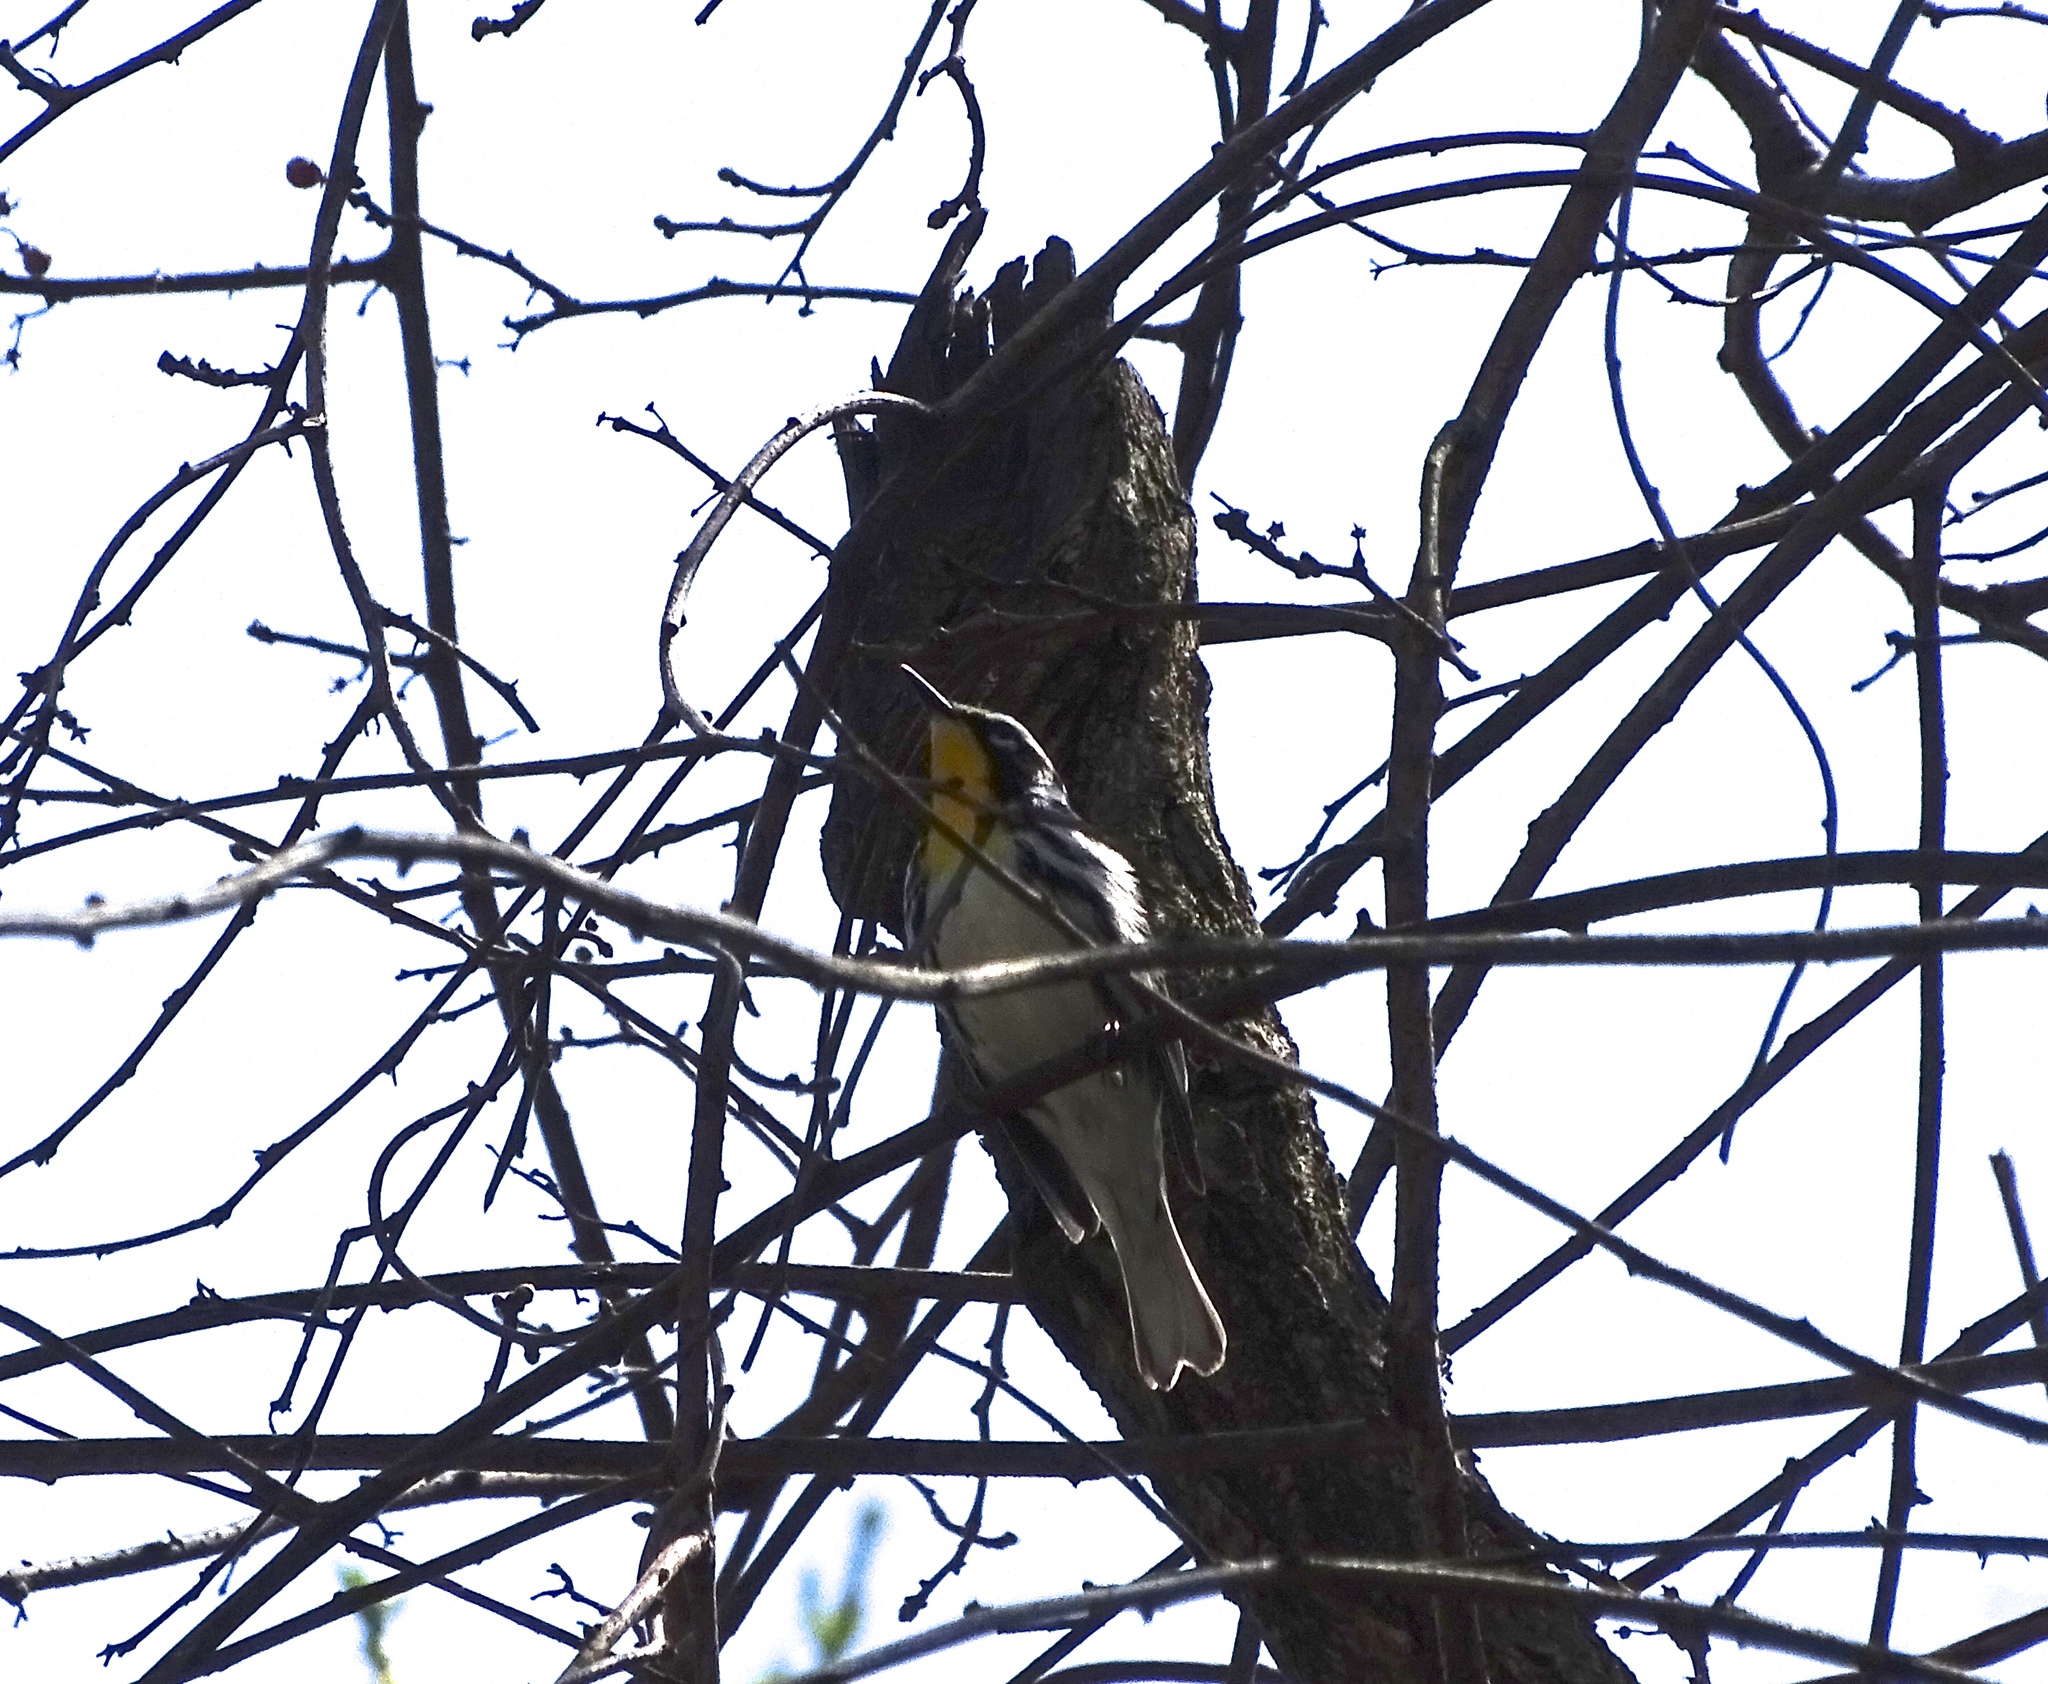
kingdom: Animalia
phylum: Chordata
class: Aves
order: Passeriformes
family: Parulidae
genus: Setophaga
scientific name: Setophaga dominica
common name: Yellow-throated warbler
